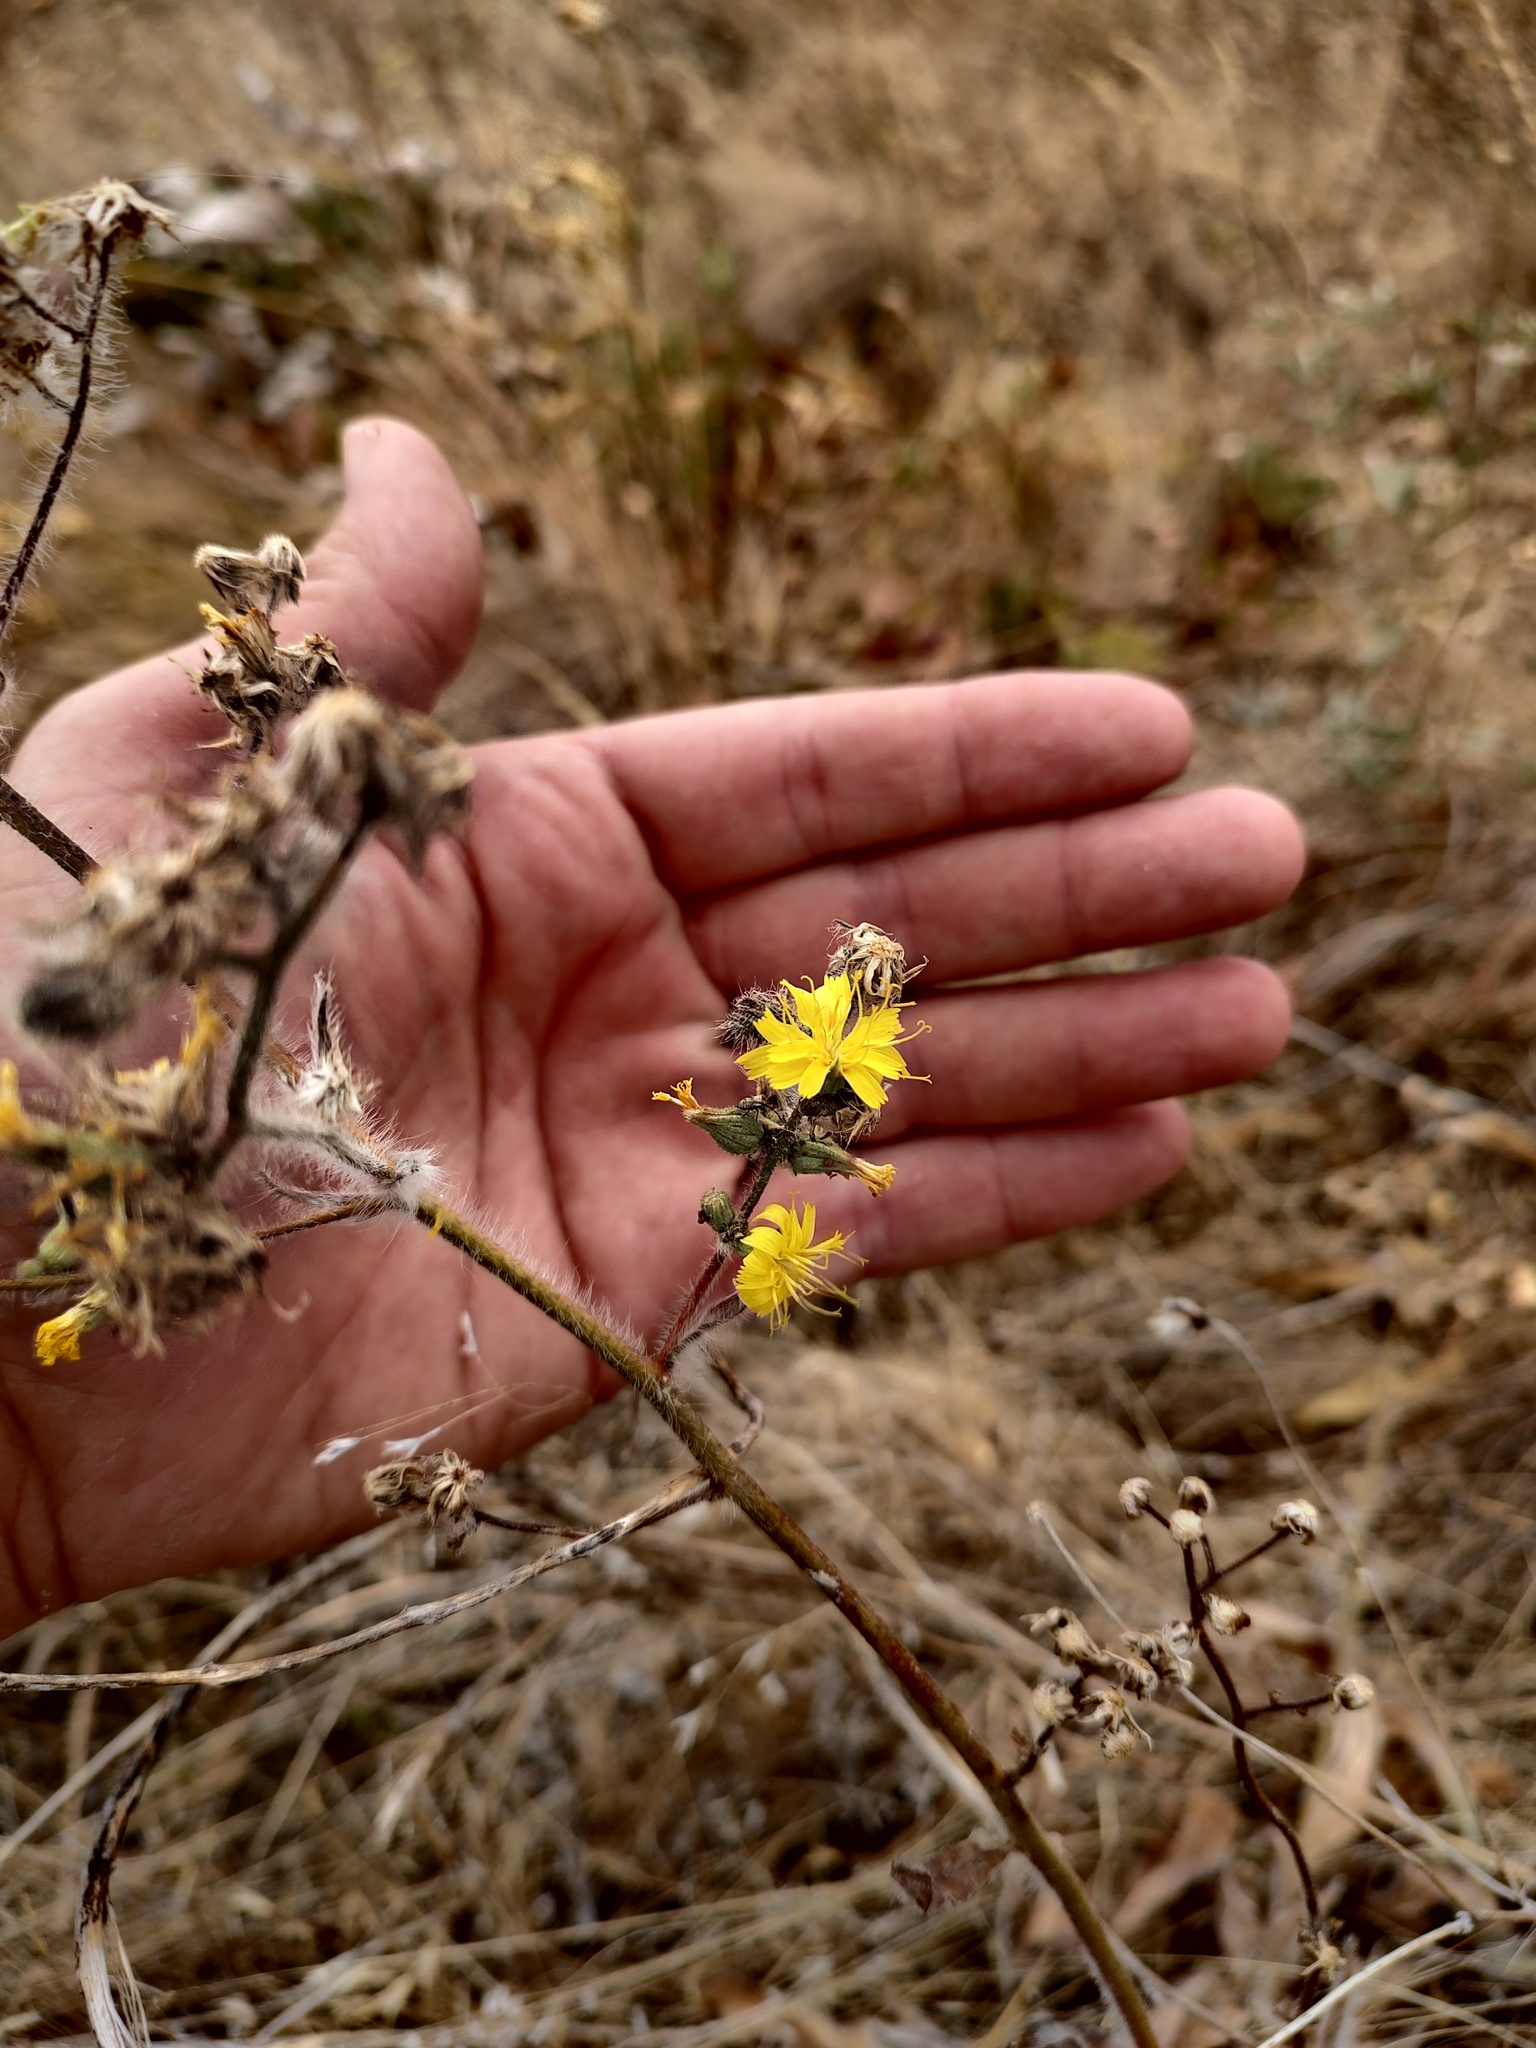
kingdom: Plantae
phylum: Tracheophyta
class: Magnoliopsida
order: Asterales
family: Asteraceae
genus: Hieracium
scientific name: Hieracium scouleri
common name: Hound's-tongue hawkweed
